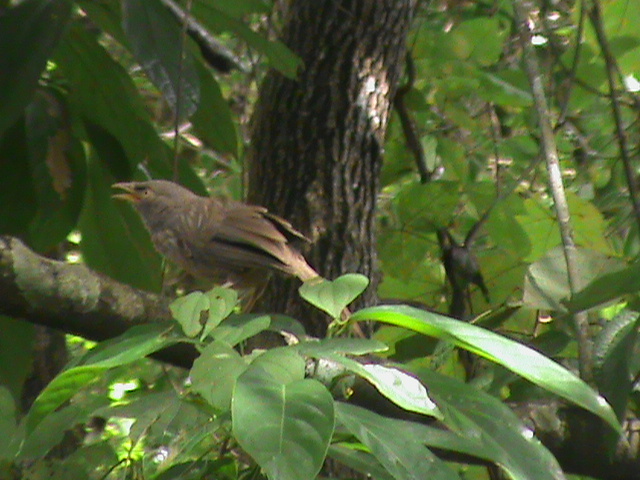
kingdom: Animalia
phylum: Chordata
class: Aves
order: Passeriformes
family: Leiothrichidae
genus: Turdoides
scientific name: Turdoides striata
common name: Jungle babbler
